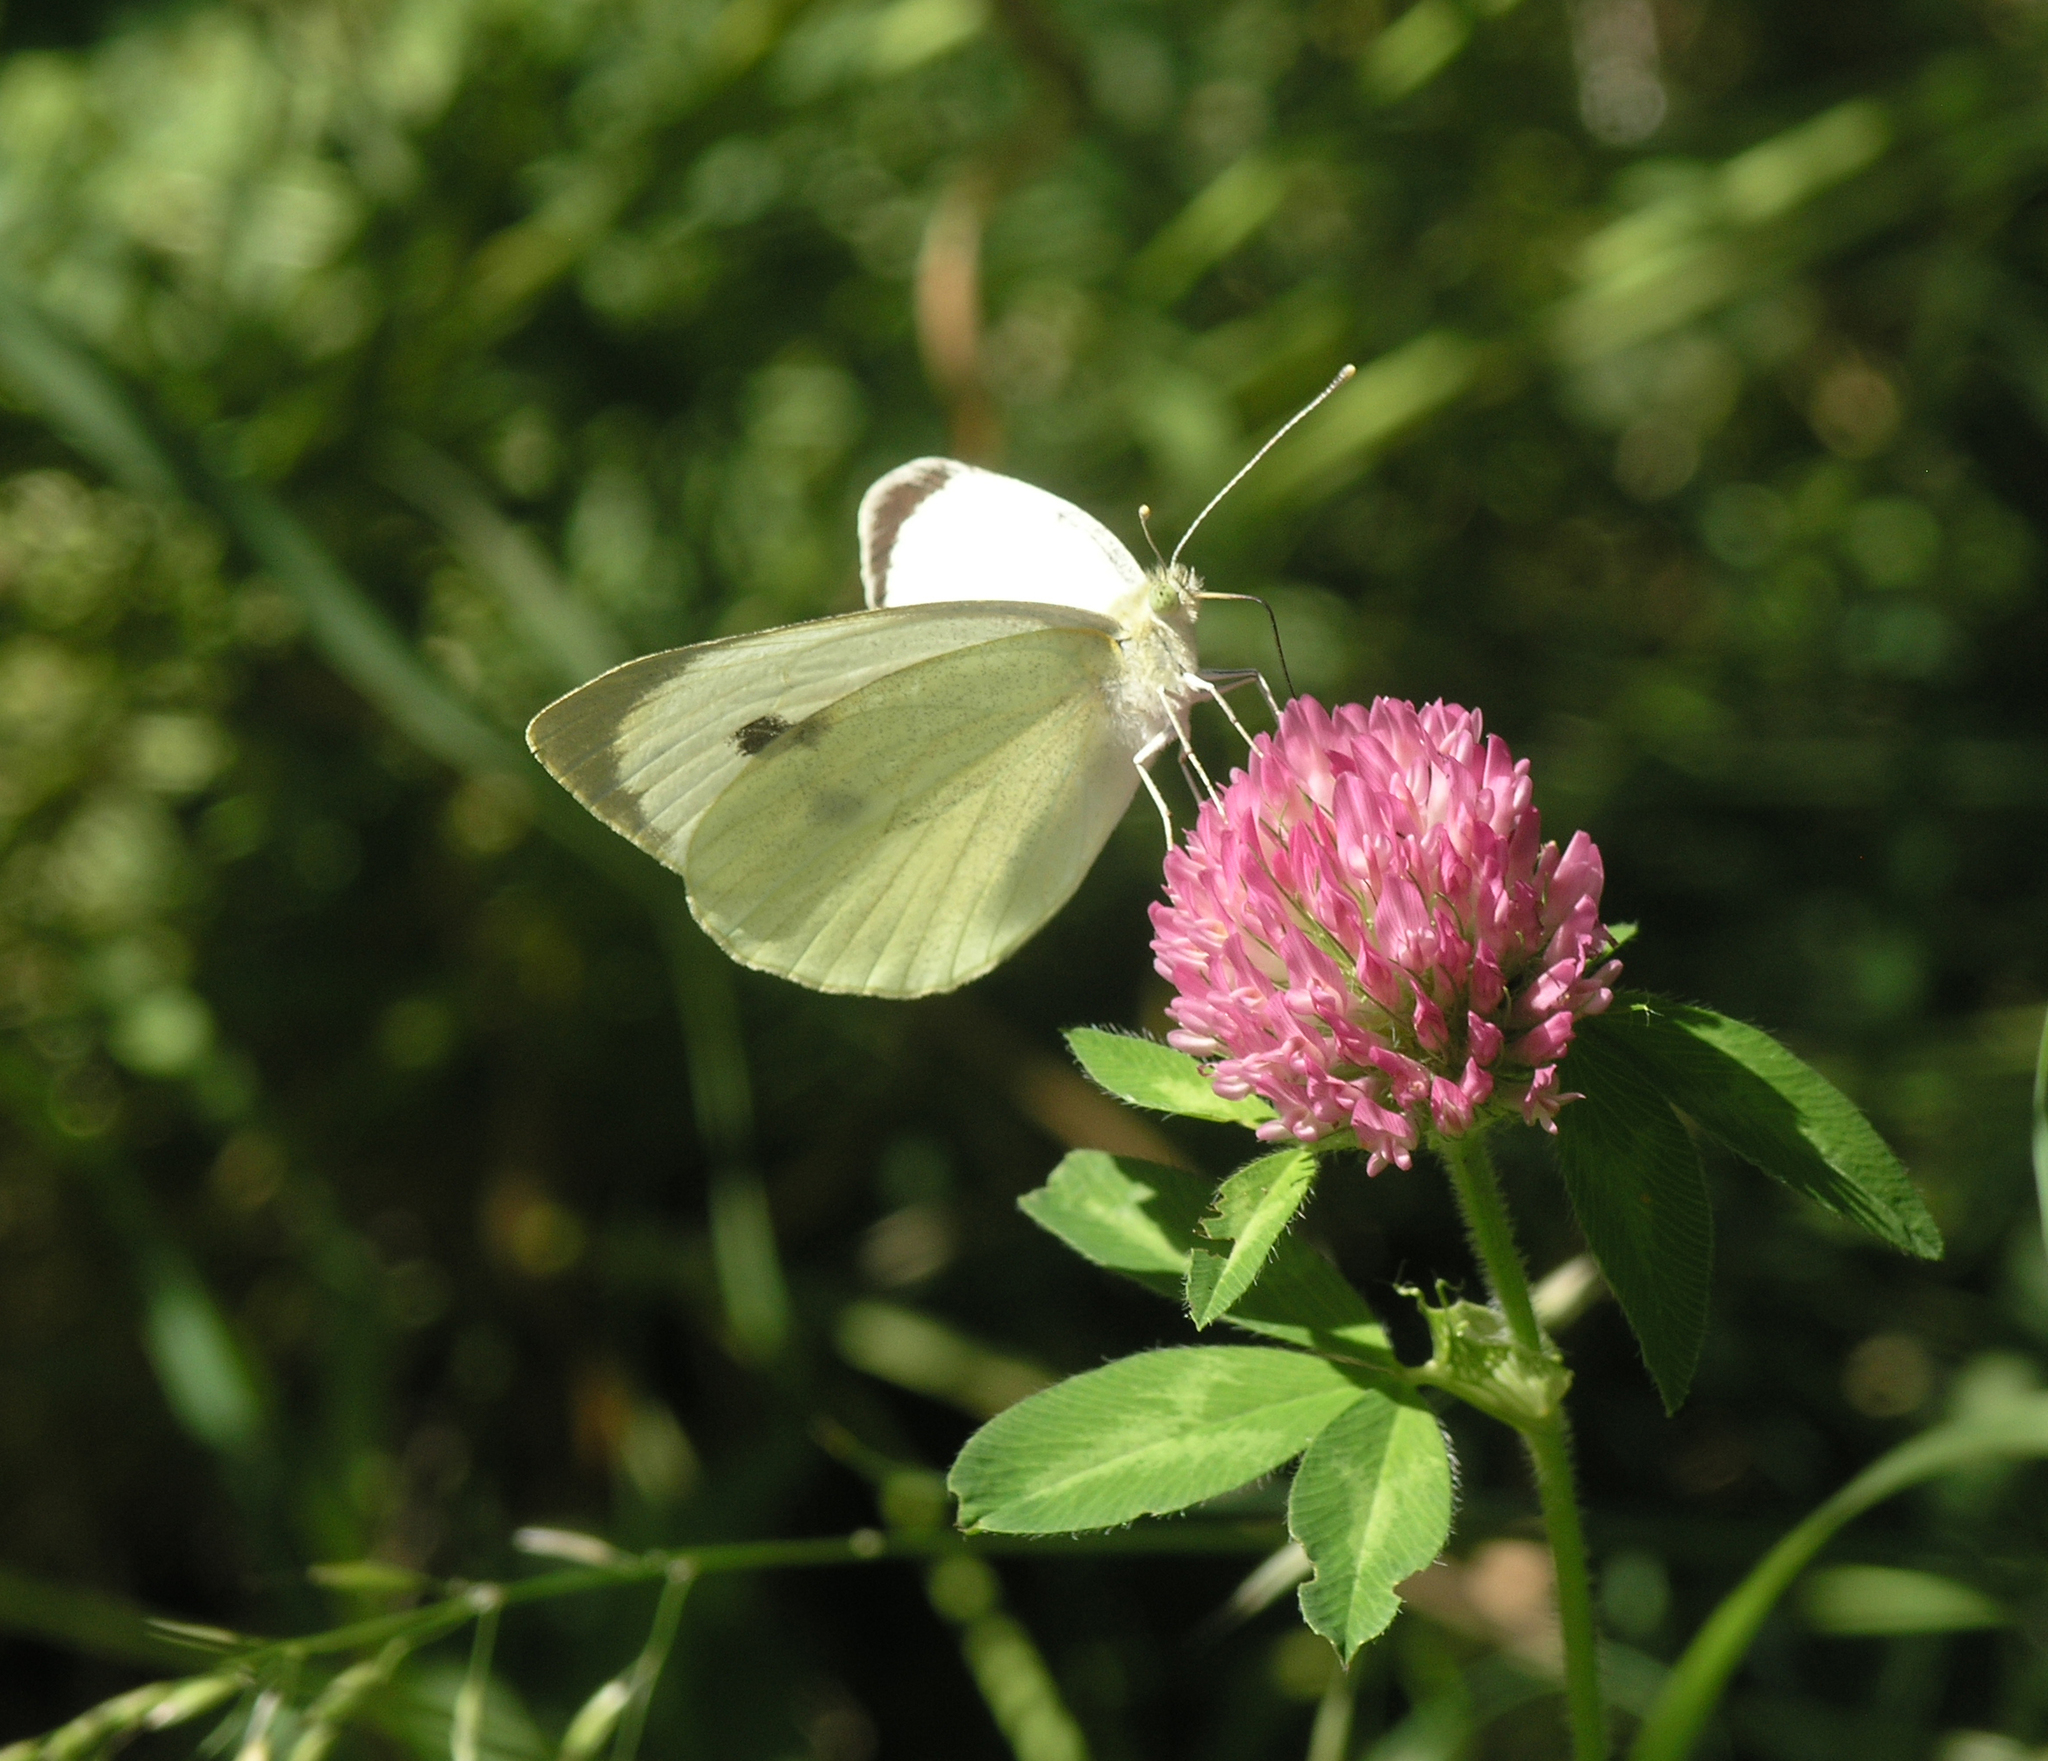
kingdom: Animalia
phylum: Arthropoda
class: Insecta
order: Lepidoptera
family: Pieridae
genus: Pieris
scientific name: Pieris brassicae
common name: Large white
